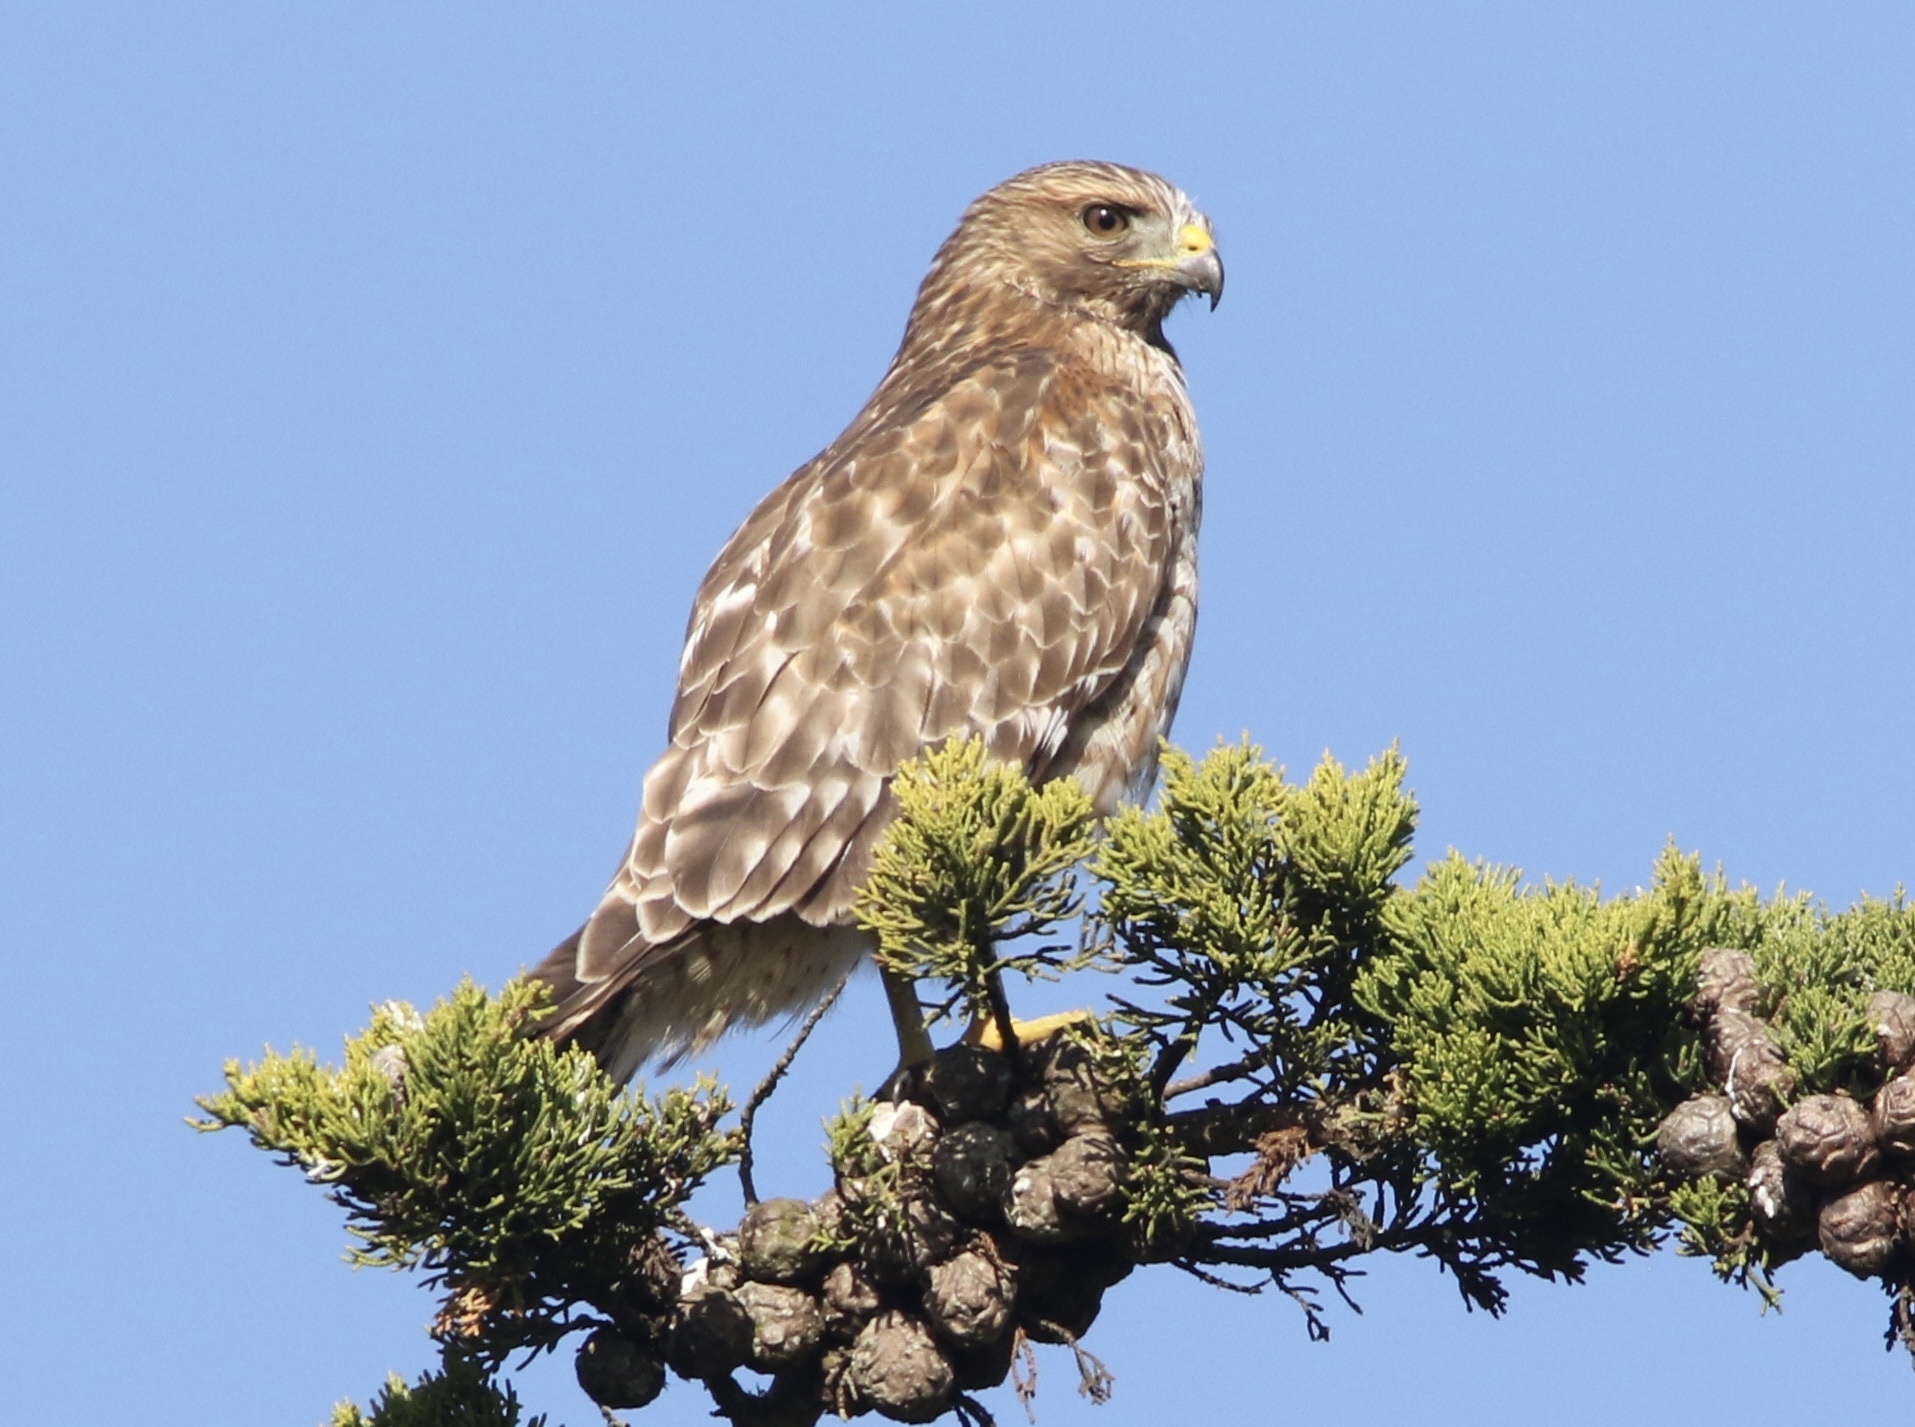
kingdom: Animalia
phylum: Chordata
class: Aves
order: Accipitriformes
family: Accipitridae
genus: Buteo
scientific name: Buteo lineatus
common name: Red-shouldered hawk
